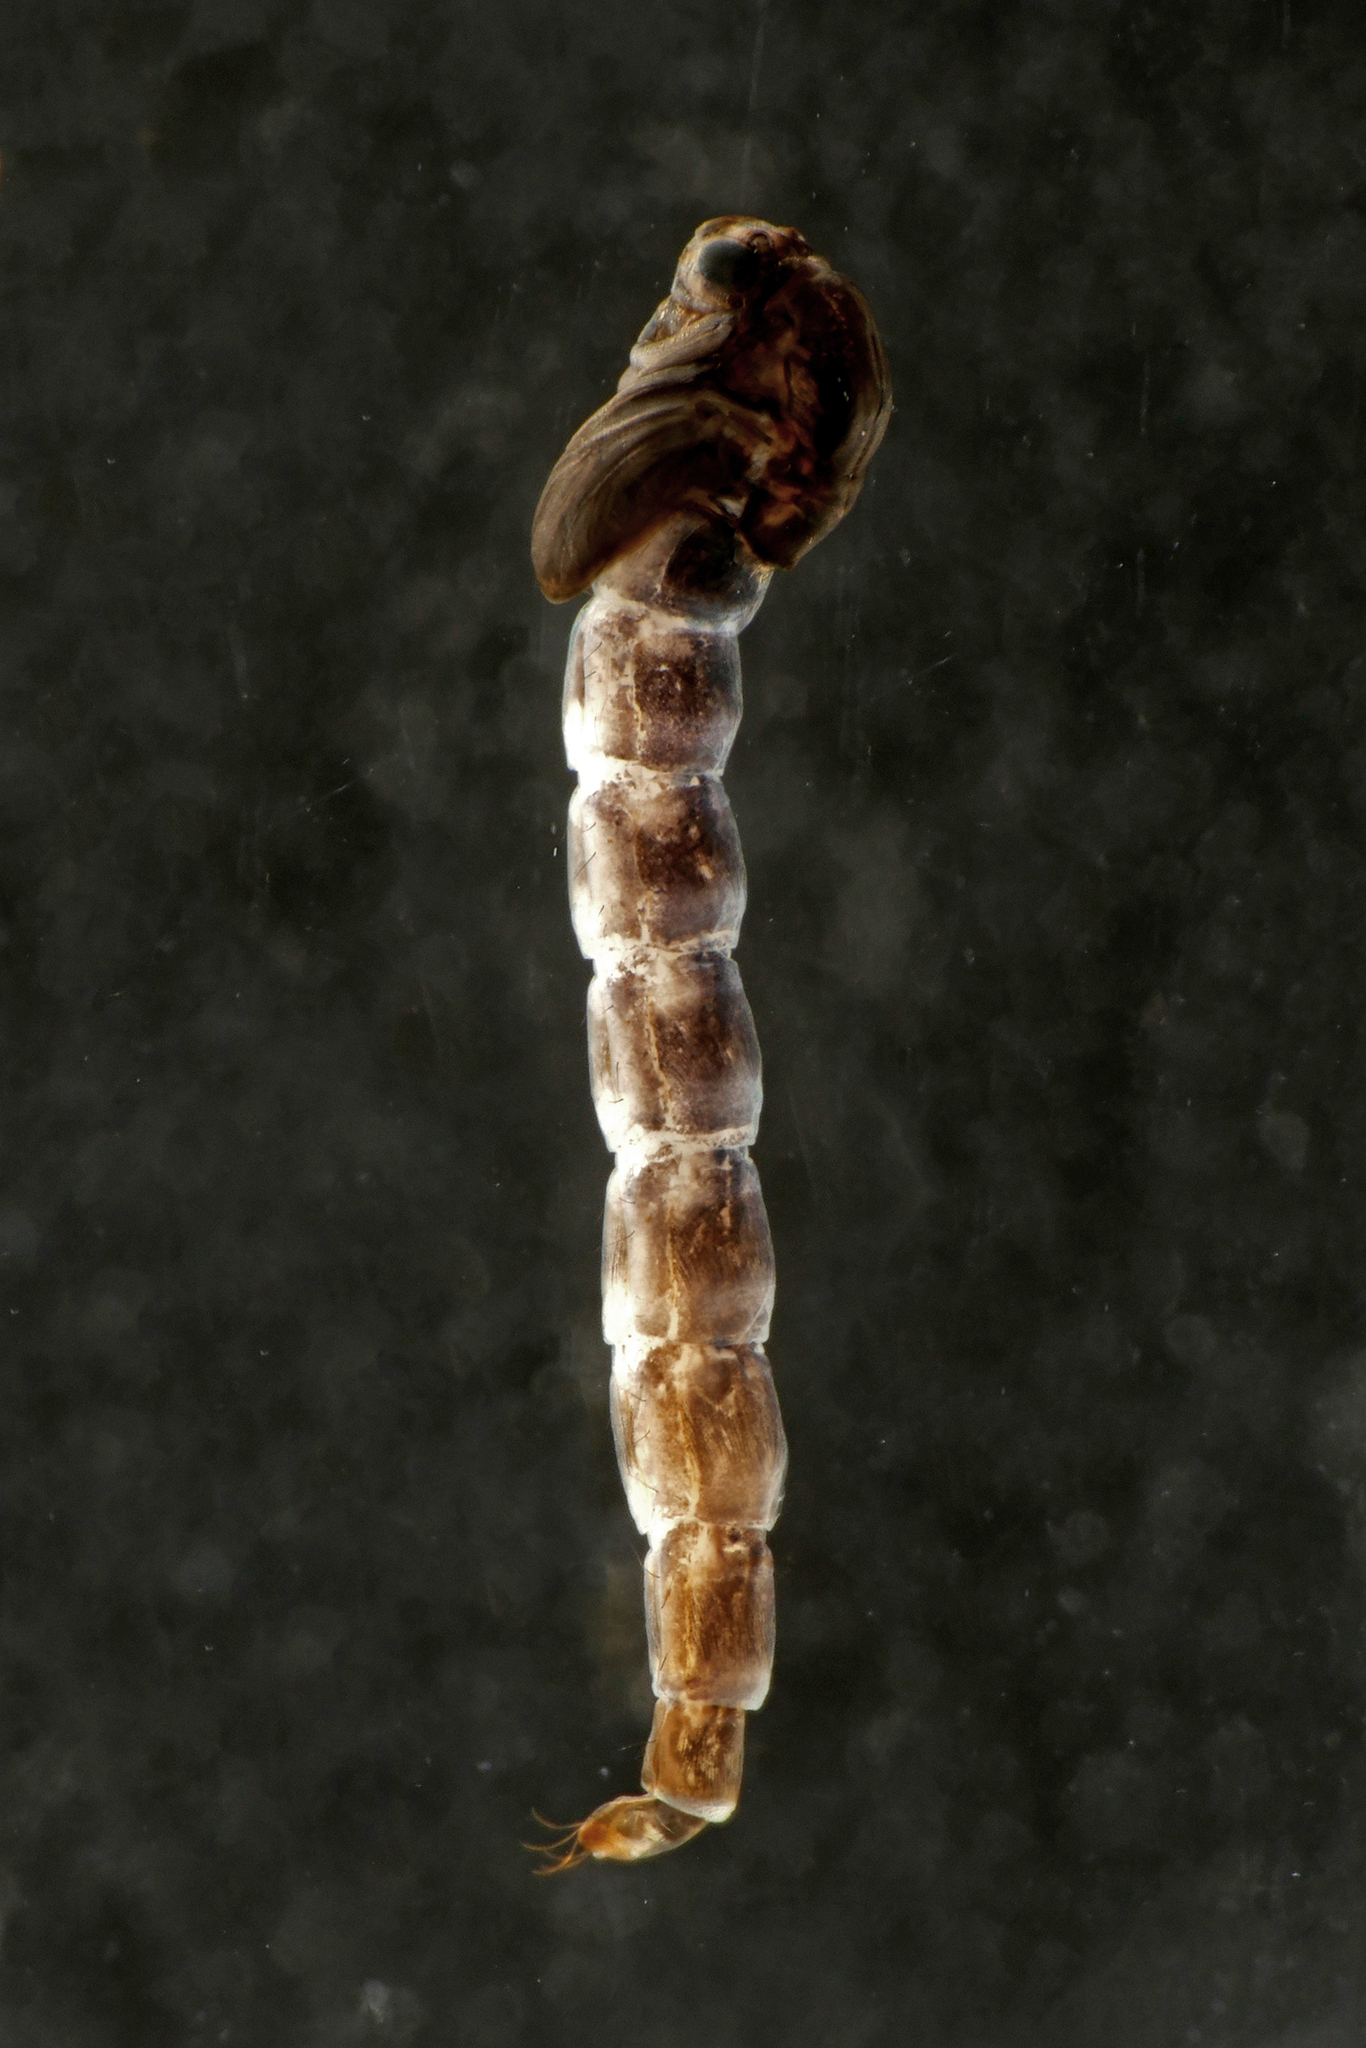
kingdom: Animalia
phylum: Arthropoda
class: Insecta
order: Diptera
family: Chironomidae
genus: Metriocnemus
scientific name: Metriocnemus carmencitabertarum
